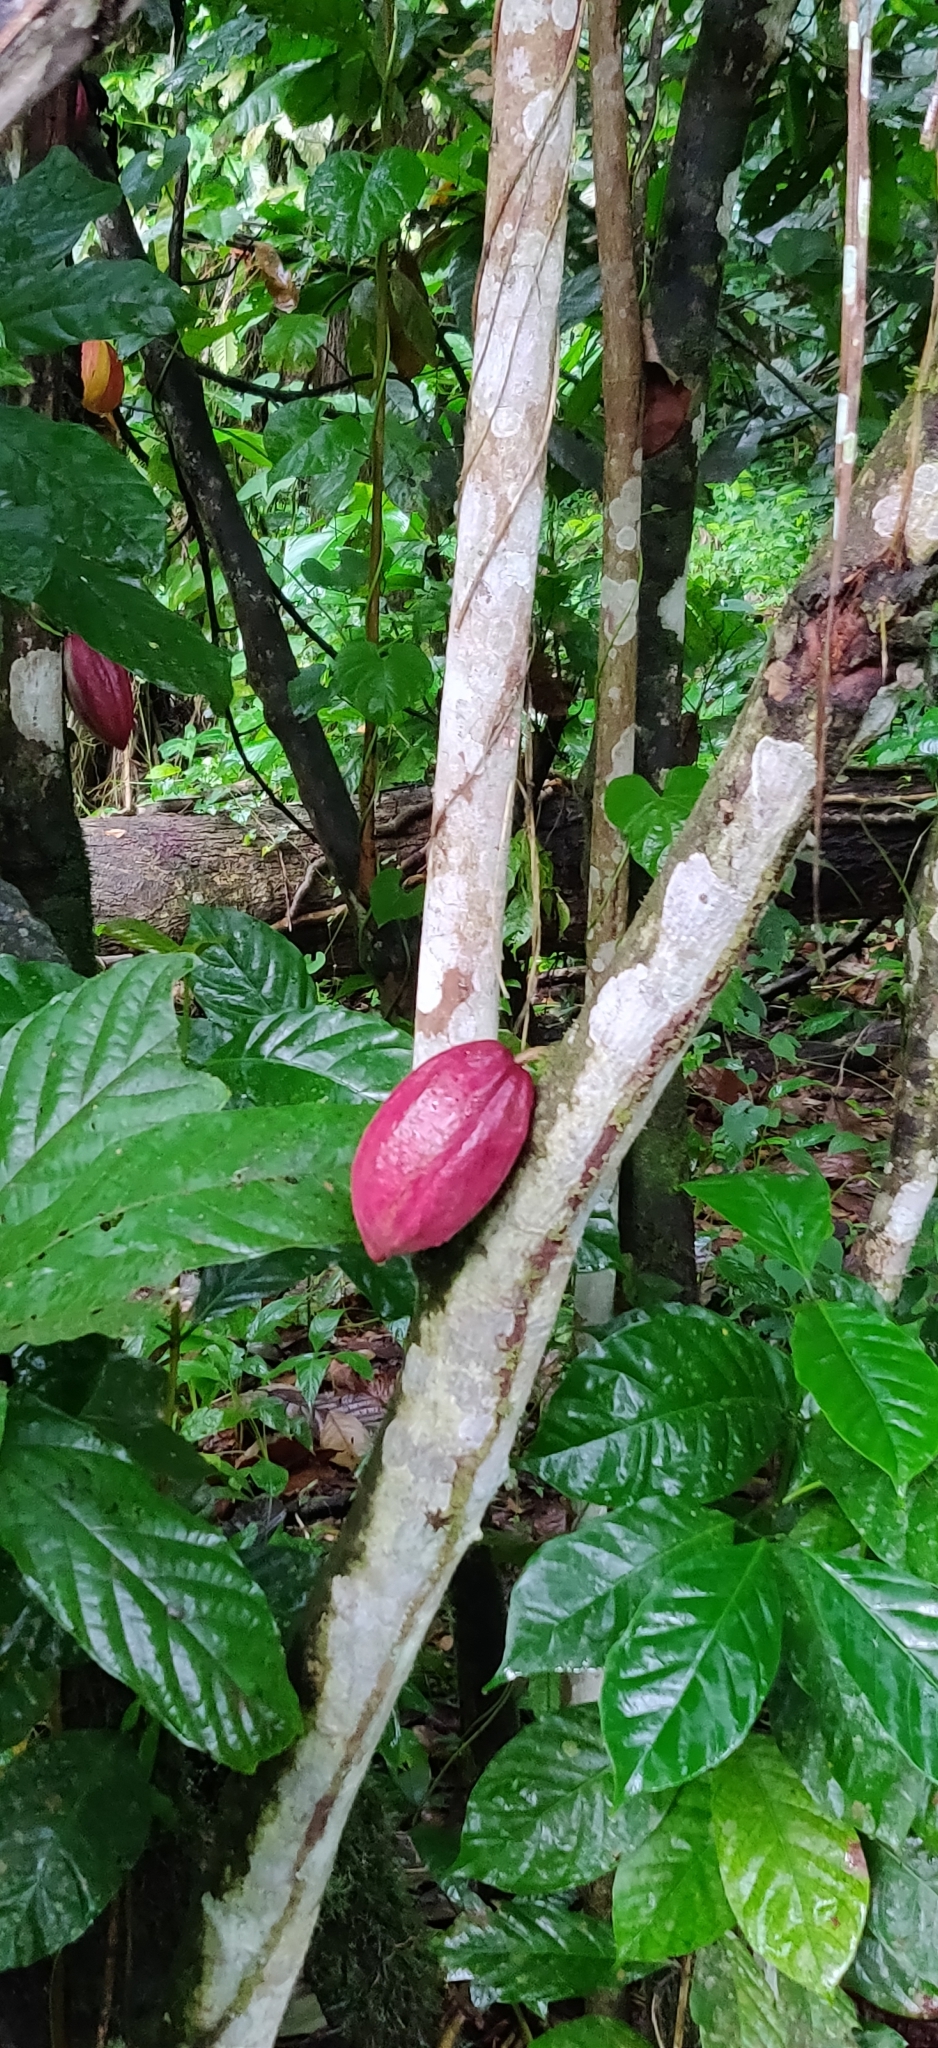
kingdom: Plantae
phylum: Tracheophyta
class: Magnoliopsida
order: Malvales
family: Malvaceae
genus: Theobroma
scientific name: Theobroma cacao
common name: Cocoa
